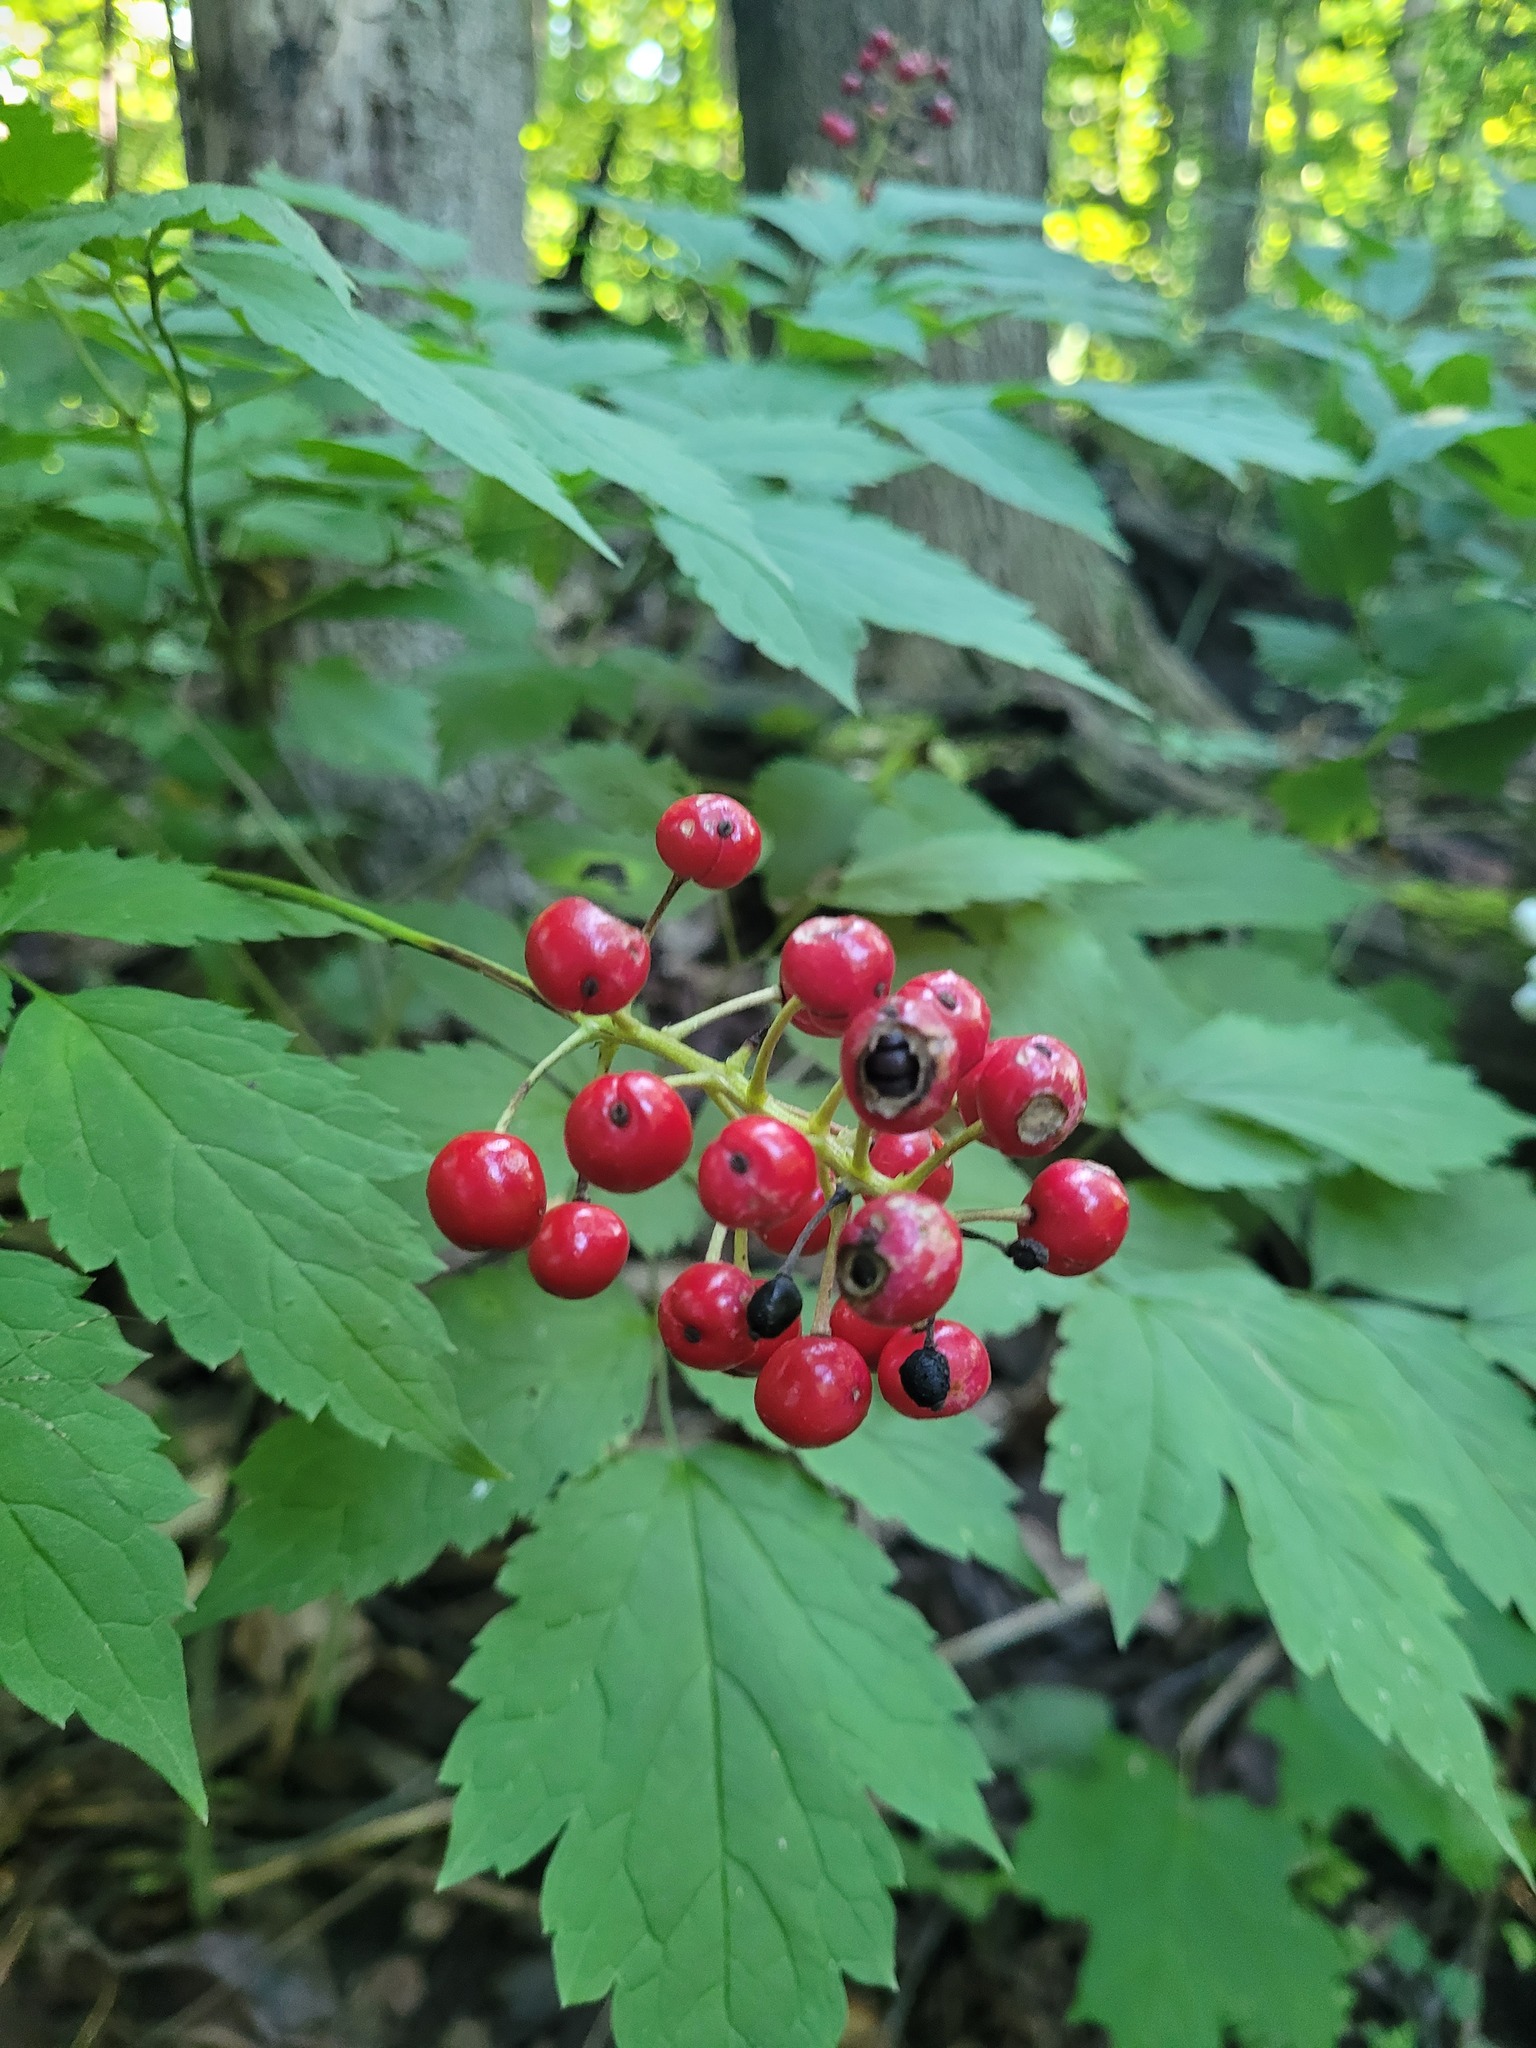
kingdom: Plantae
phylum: Tracheophyta
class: Magnoliopsida
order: Ranunculales
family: Ranunculaceae
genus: Actaea
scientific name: Actaea ludovici
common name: Ludovic's baneberry
